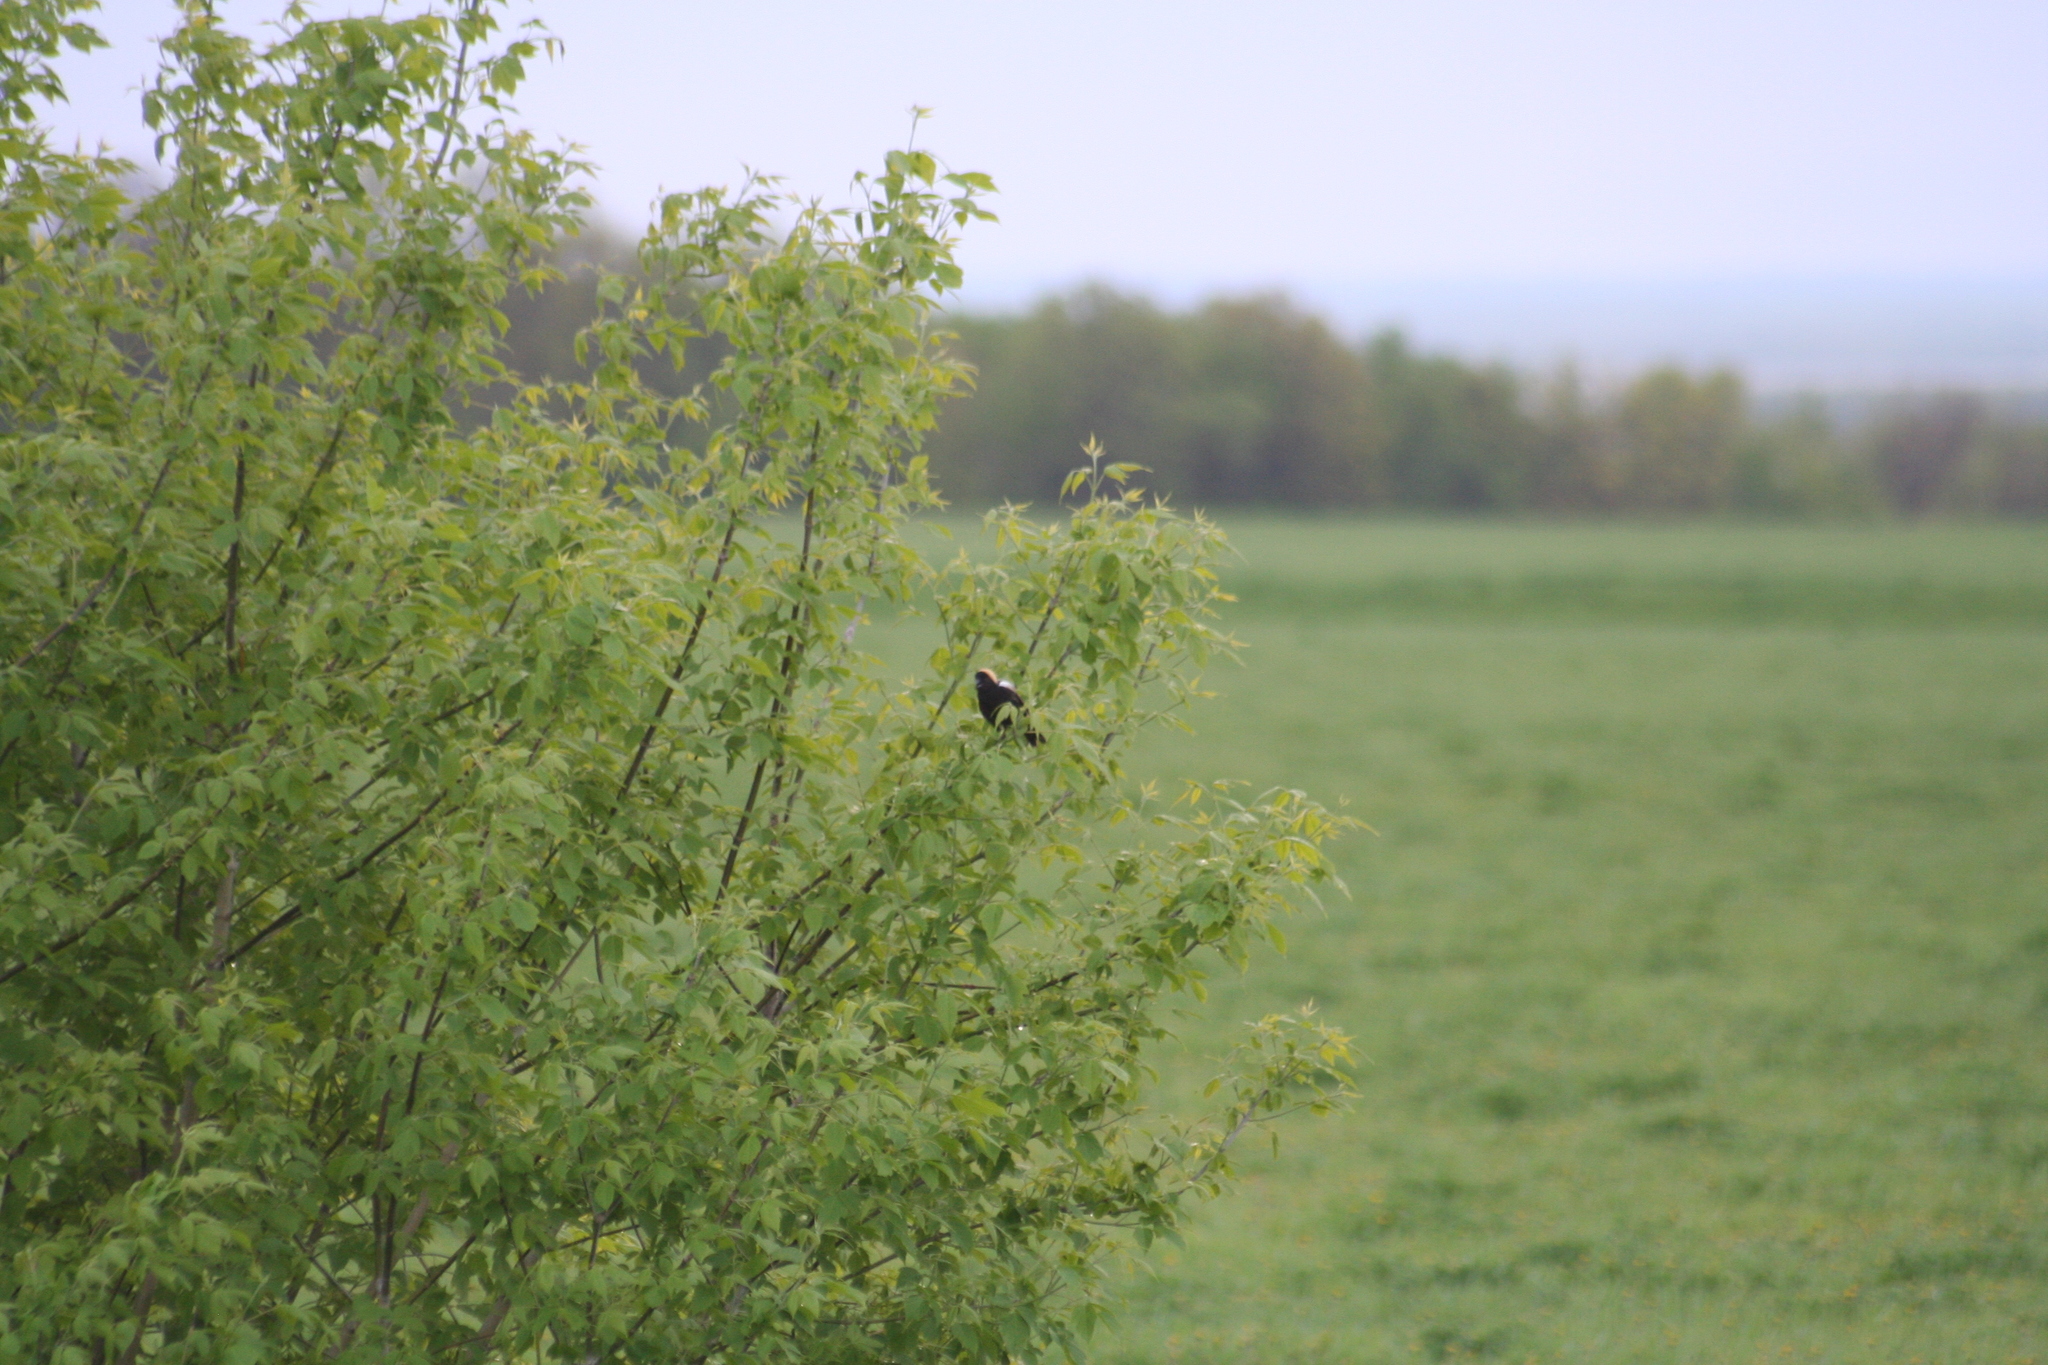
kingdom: Animalia
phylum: Chordata
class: Aves
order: Passeriformes
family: Icteridae
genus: Dolichonyx
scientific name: Dolichonyx oryzivorus
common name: Bobolink
